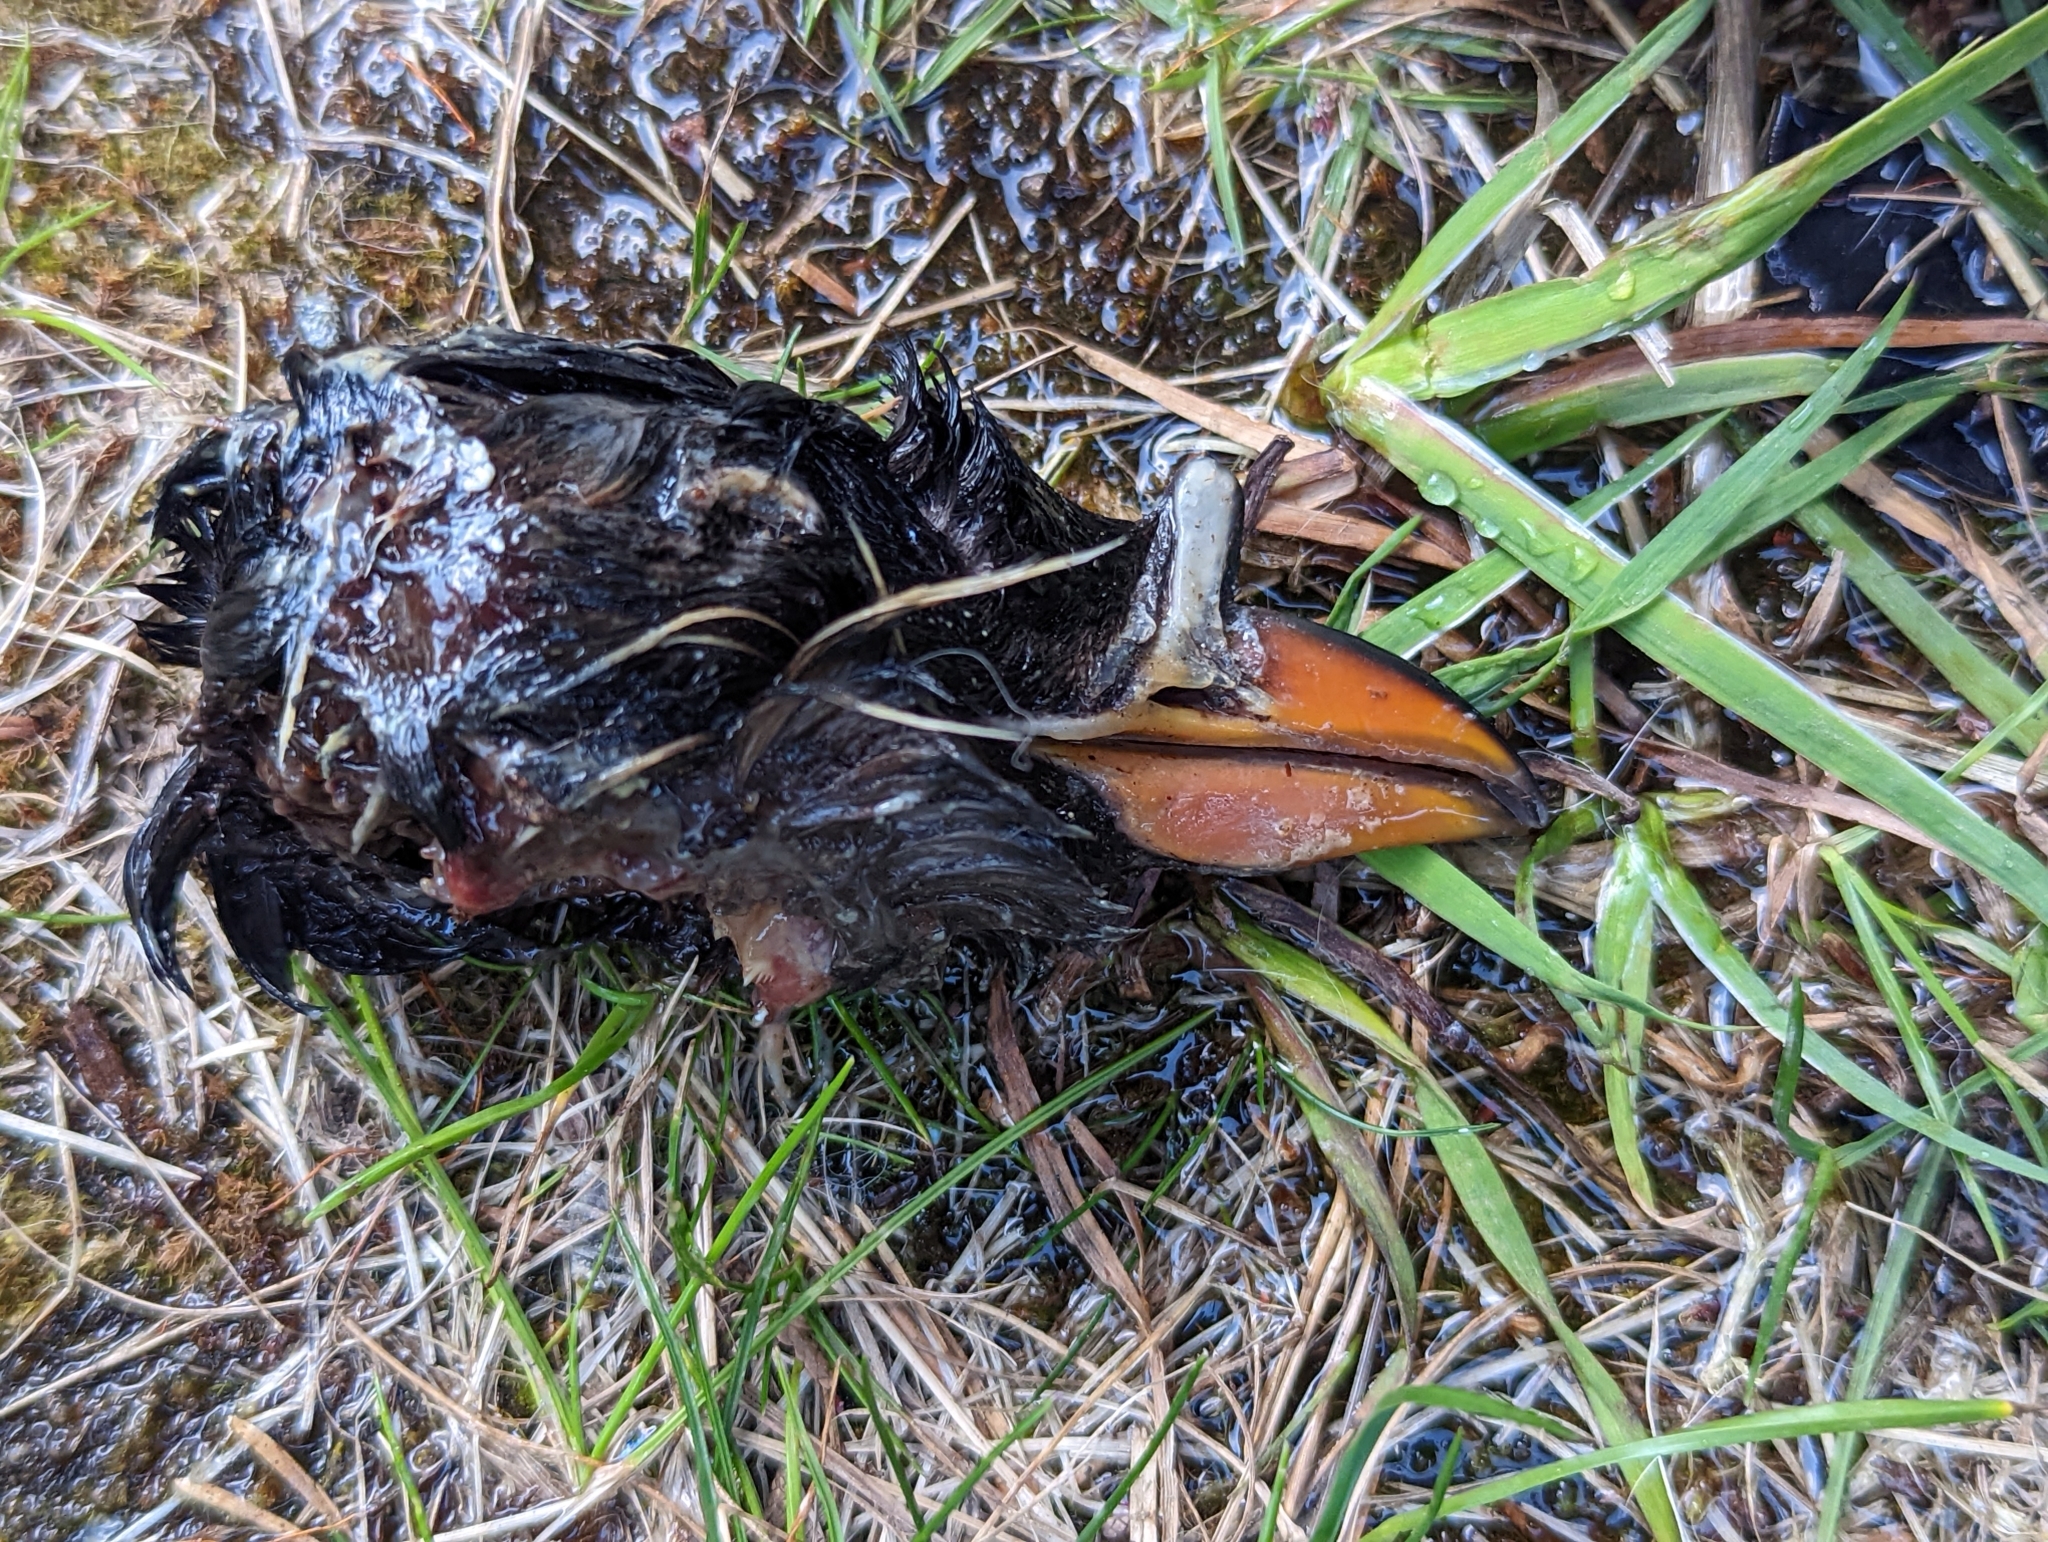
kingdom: Animalia
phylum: Chordata
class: Aves
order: Charadriiformes
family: Alcidae
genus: Cerorhinca
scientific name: Cerorhinca monocerata
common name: Rhinoceros auklet
